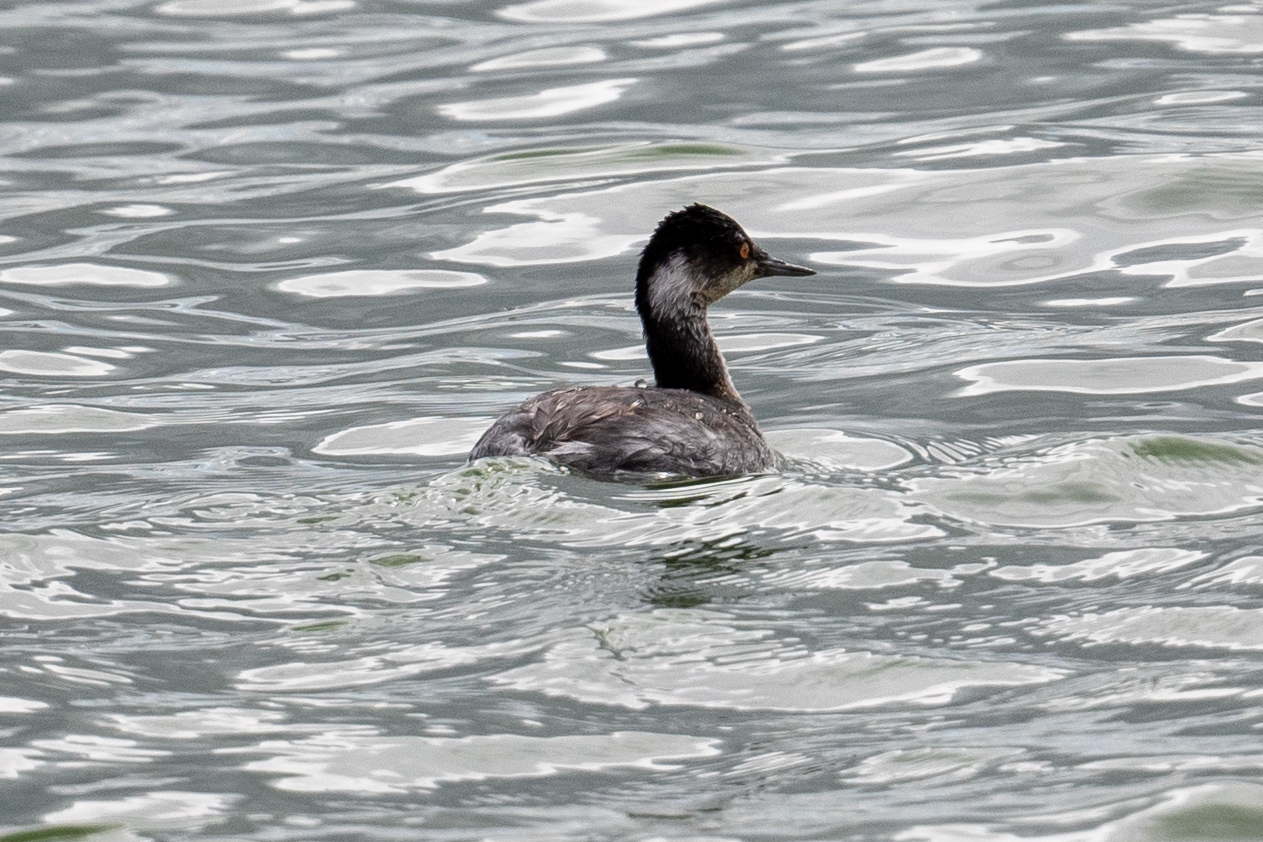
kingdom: Animalia
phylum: Chordata
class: Aves
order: Podicipediformes
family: Podicipedidae
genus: Podiceps
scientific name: Podiceps nigricollis
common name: Black-necked grebe
